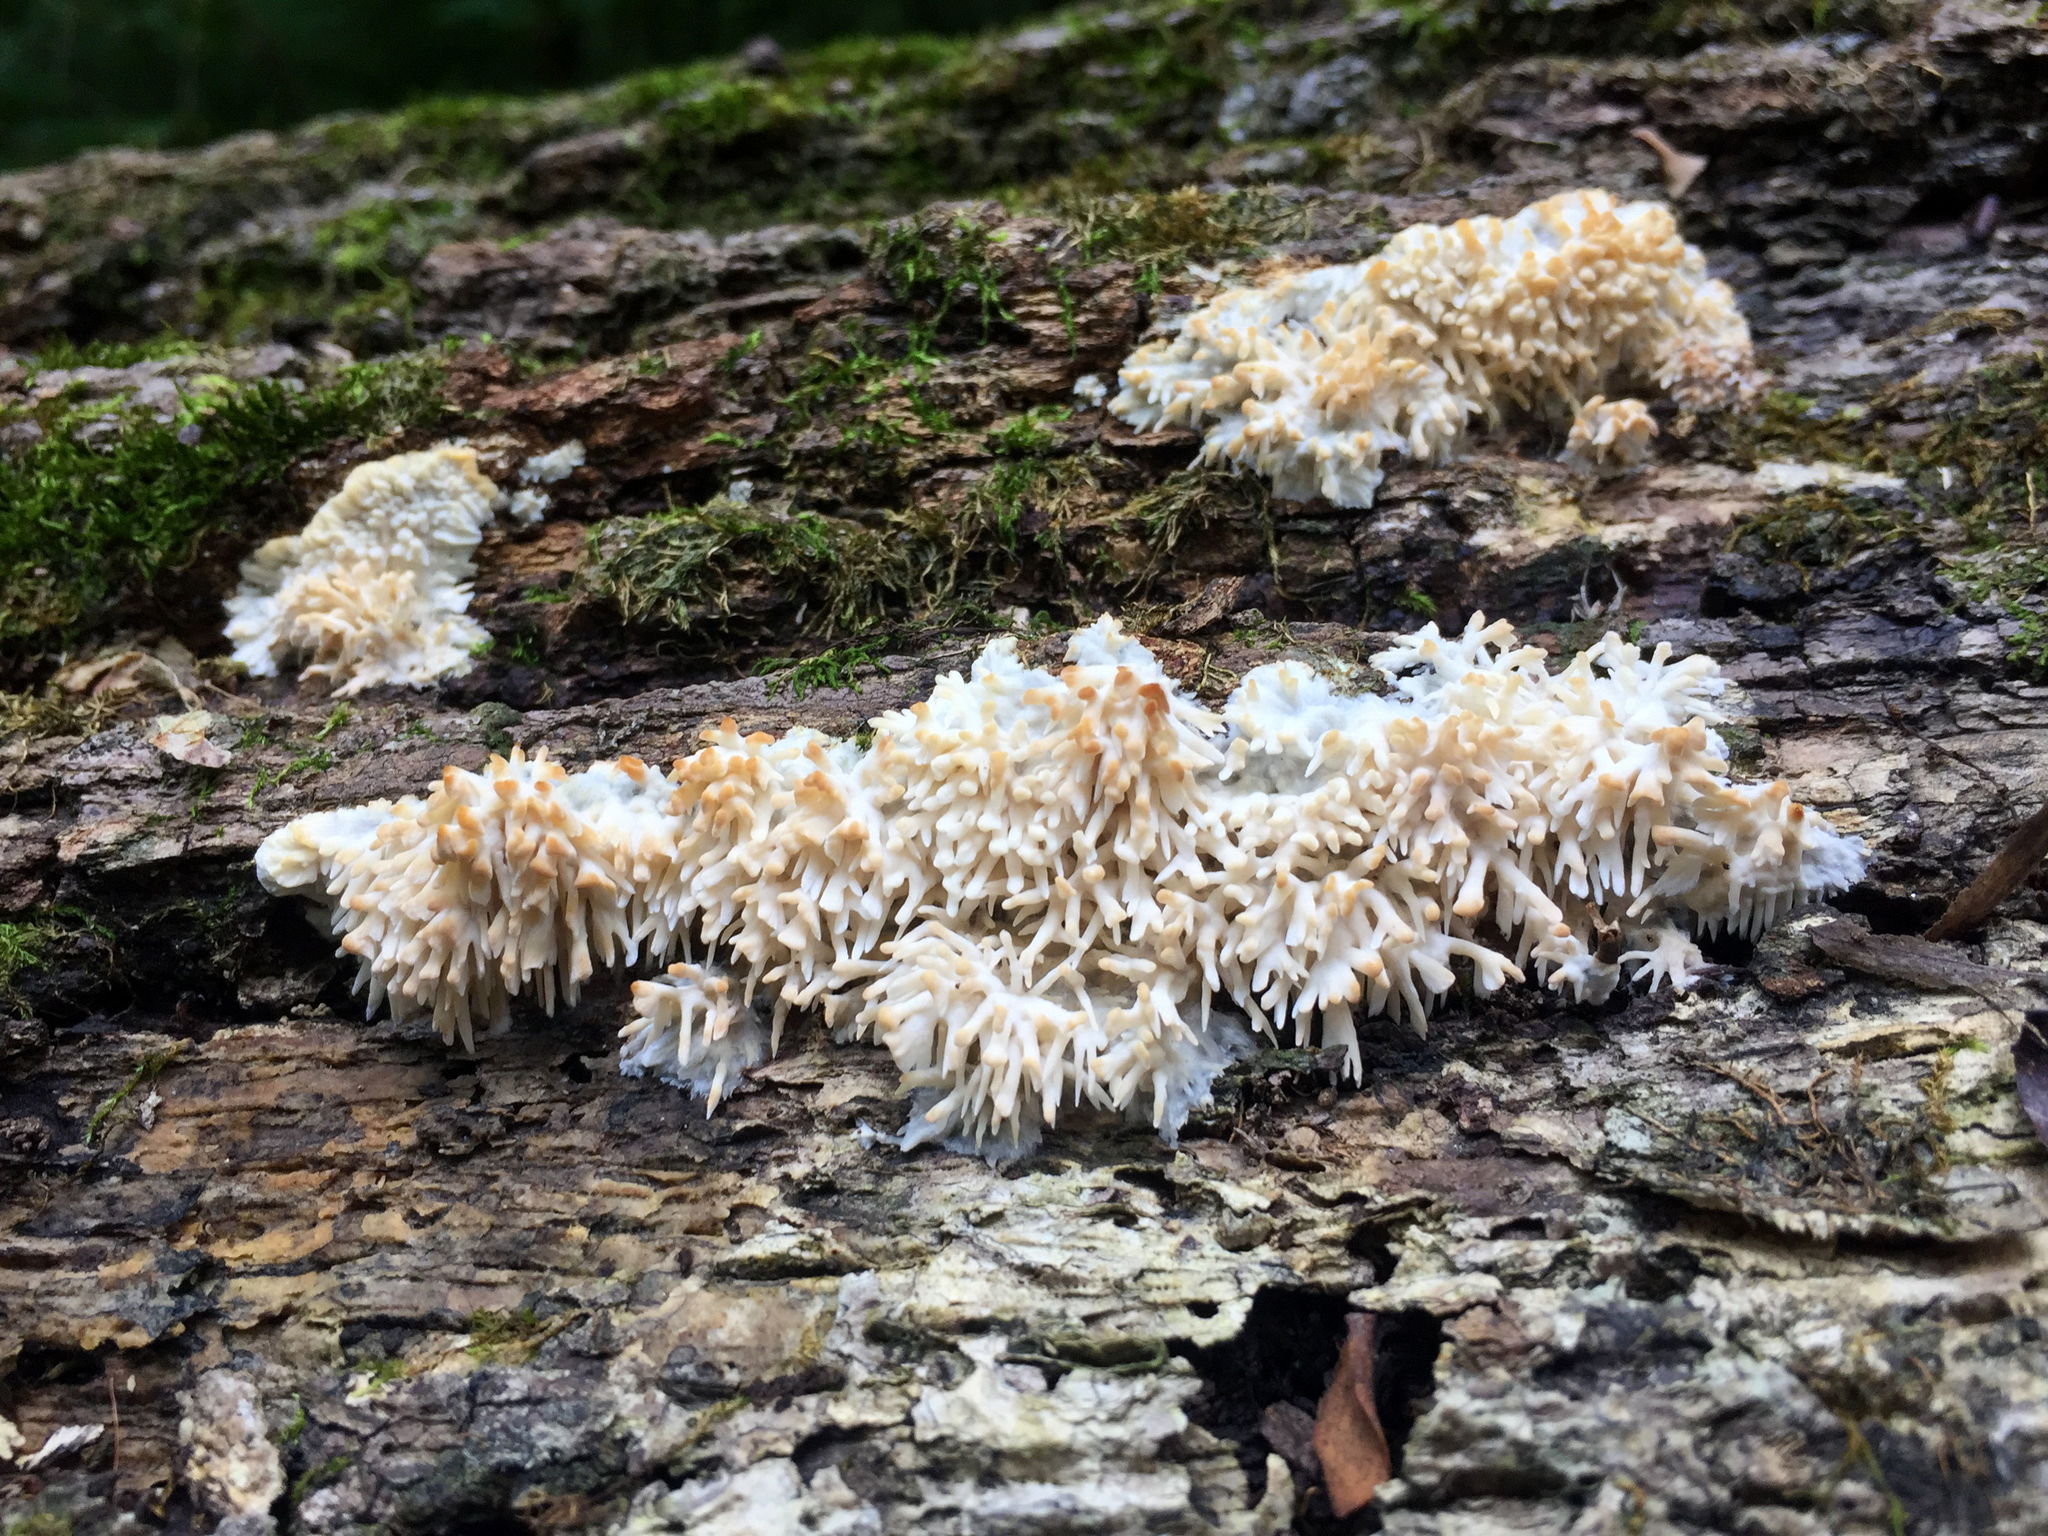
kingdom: Fungi
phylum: Basidiomycota
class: Agaricomycetes
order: Agaricales
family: Radulomycetaceae
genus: Radulomyces
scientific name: Radulomyces copelandii
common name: Asian beauty
